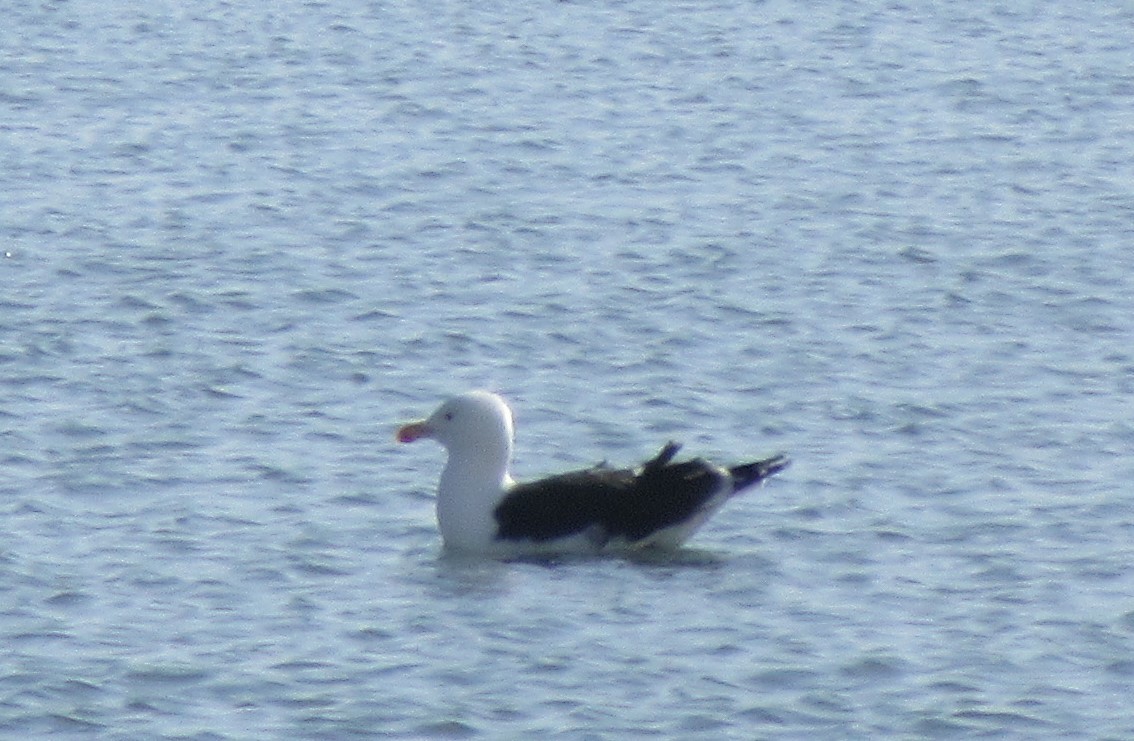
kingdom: Animalia
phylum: Chordata
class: Aves
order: Charadriiformes
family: Laridae
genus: Larus
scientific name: Larus marinus
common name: Great black-backed gull
